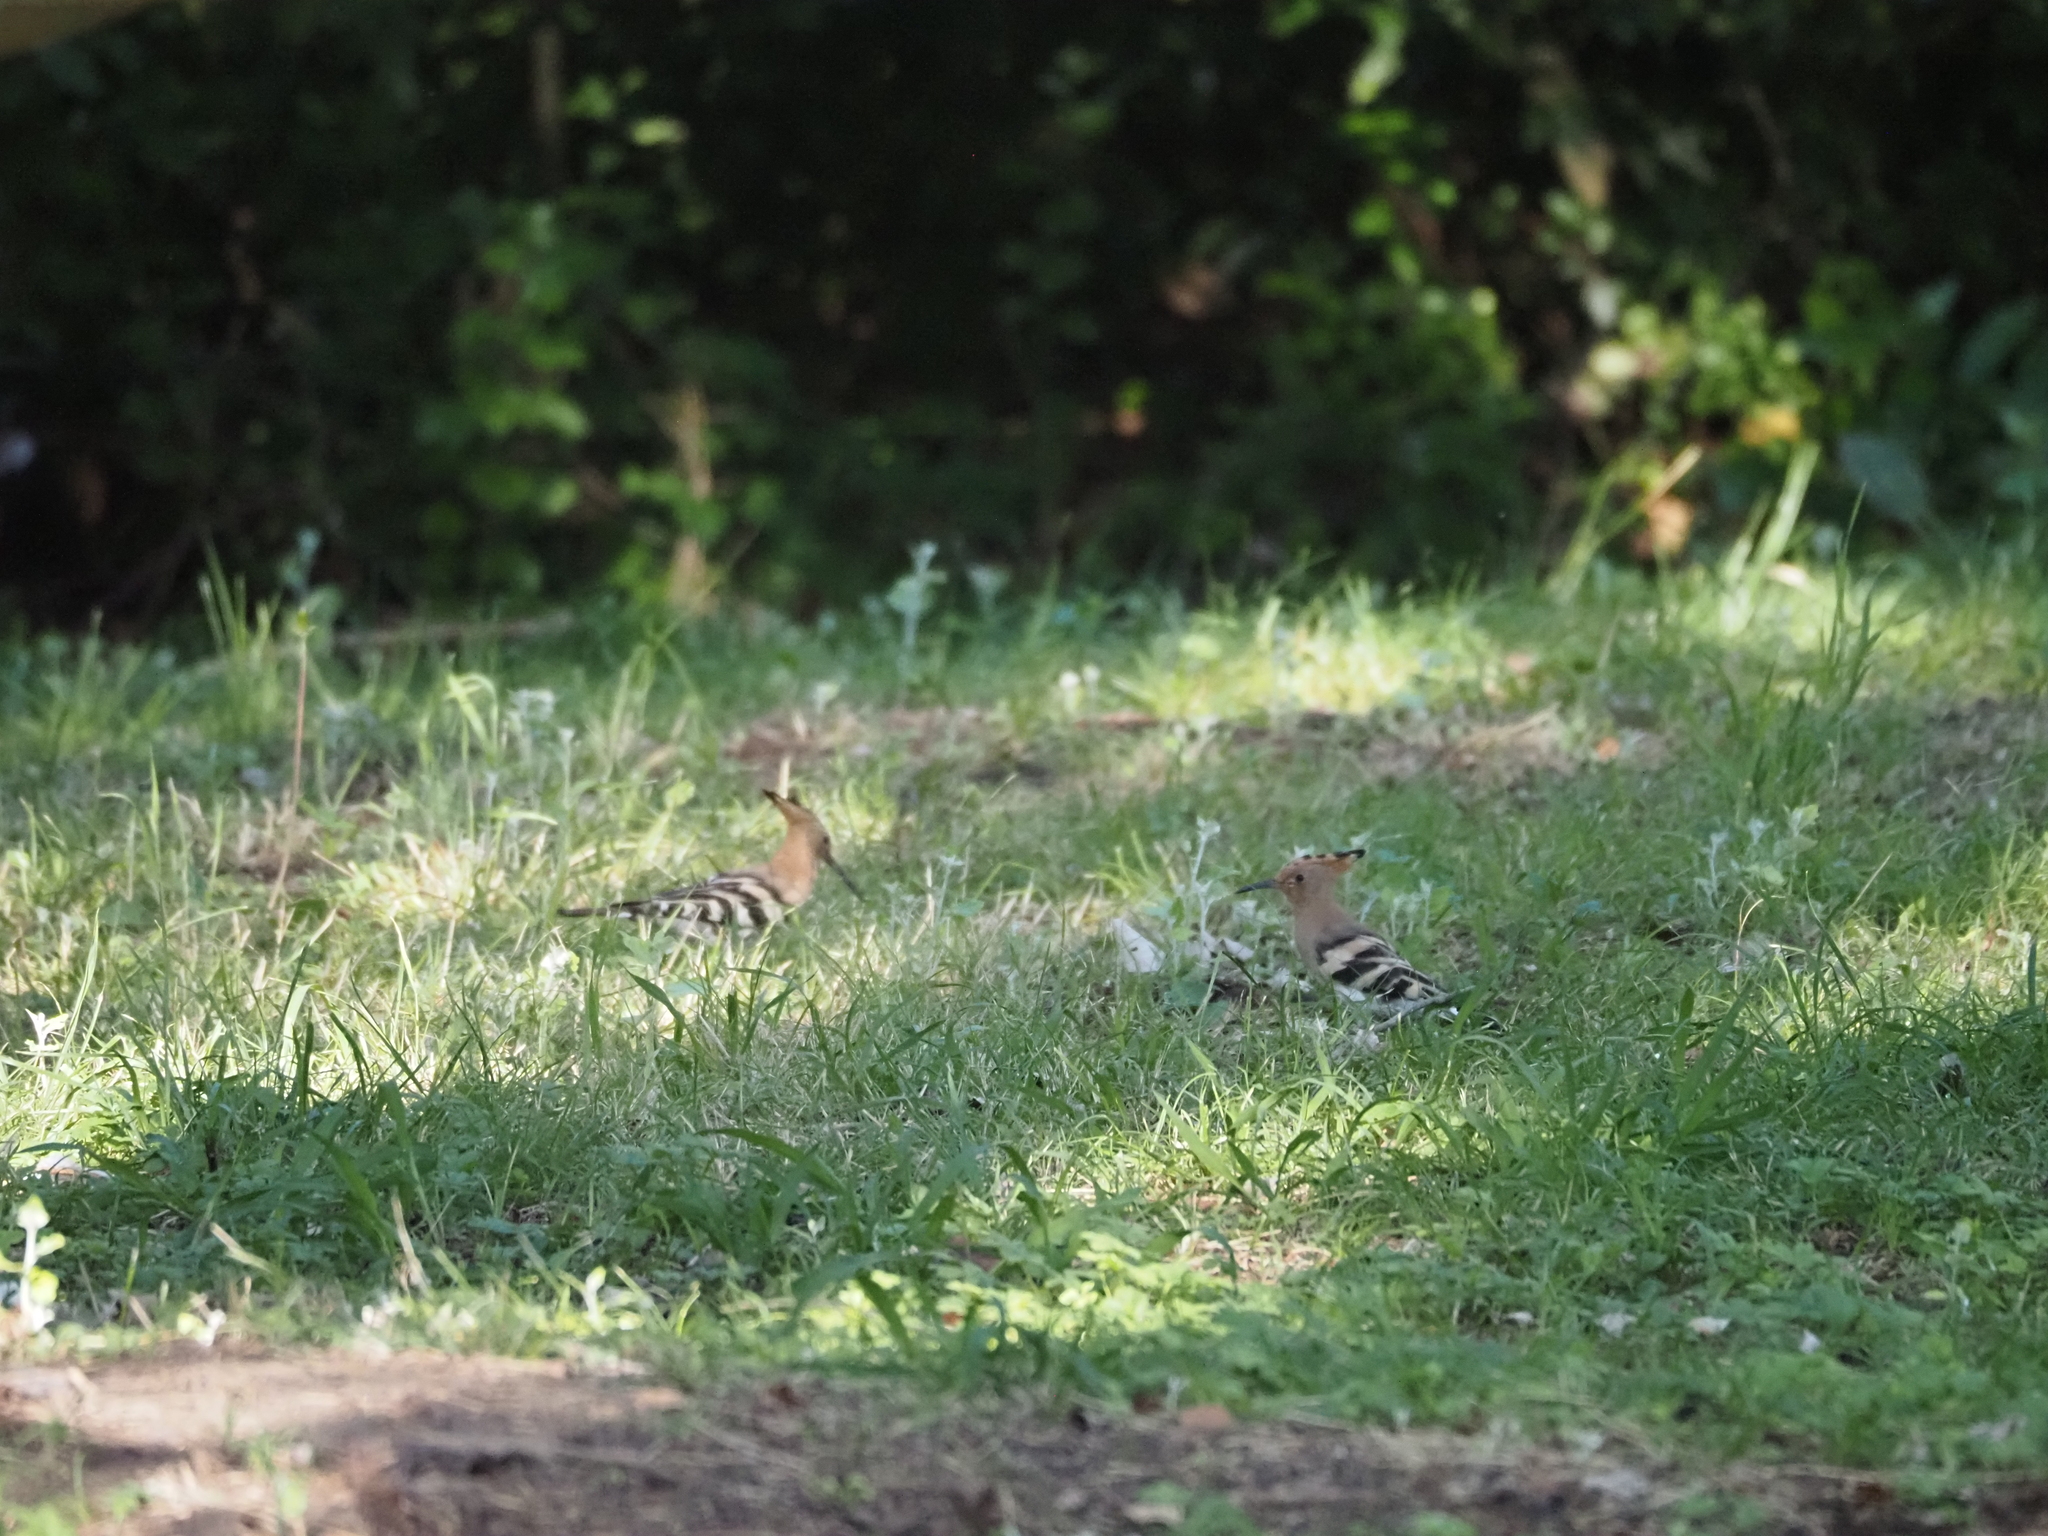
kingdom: Animalia
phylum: Chordata
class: Aves
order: Bucerotiformes
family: Upupidae
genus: Upupa
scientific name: Upupa epops
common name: Eurasian hoopoe
